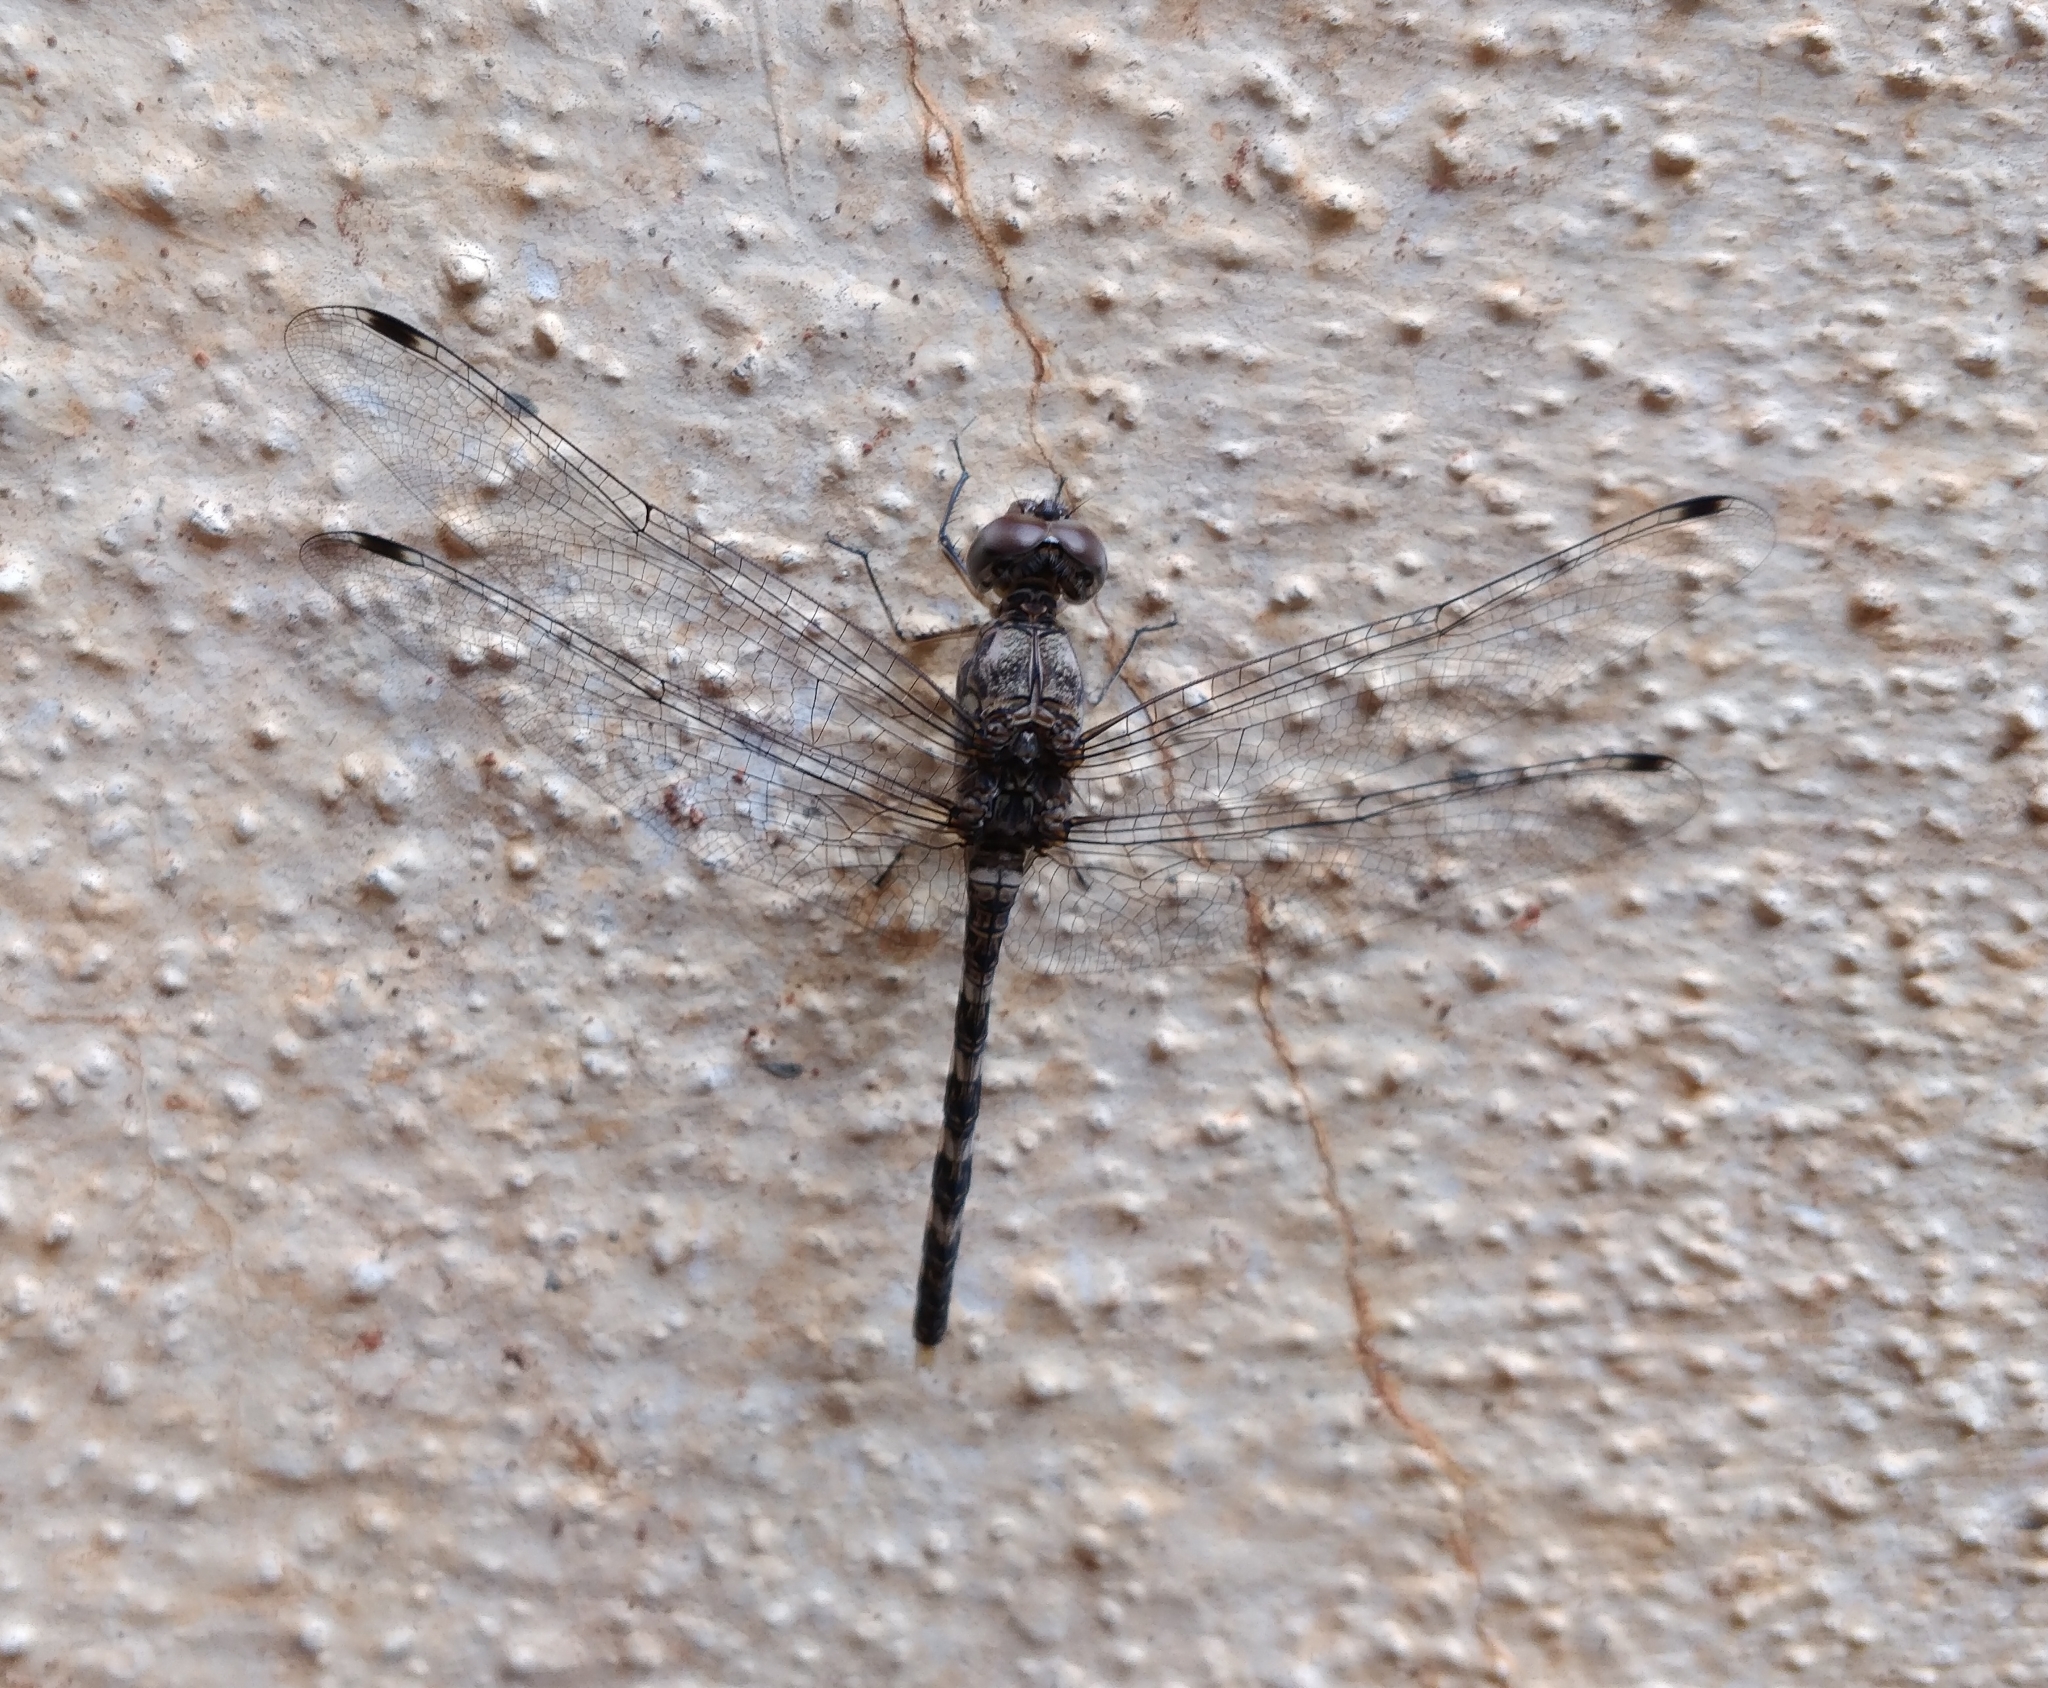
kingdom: Animalia
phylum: Arthropoda
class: Insecta
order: Odonata
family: Libellulidae
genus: Bradinopyga
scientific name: Bradinopyga geminata
